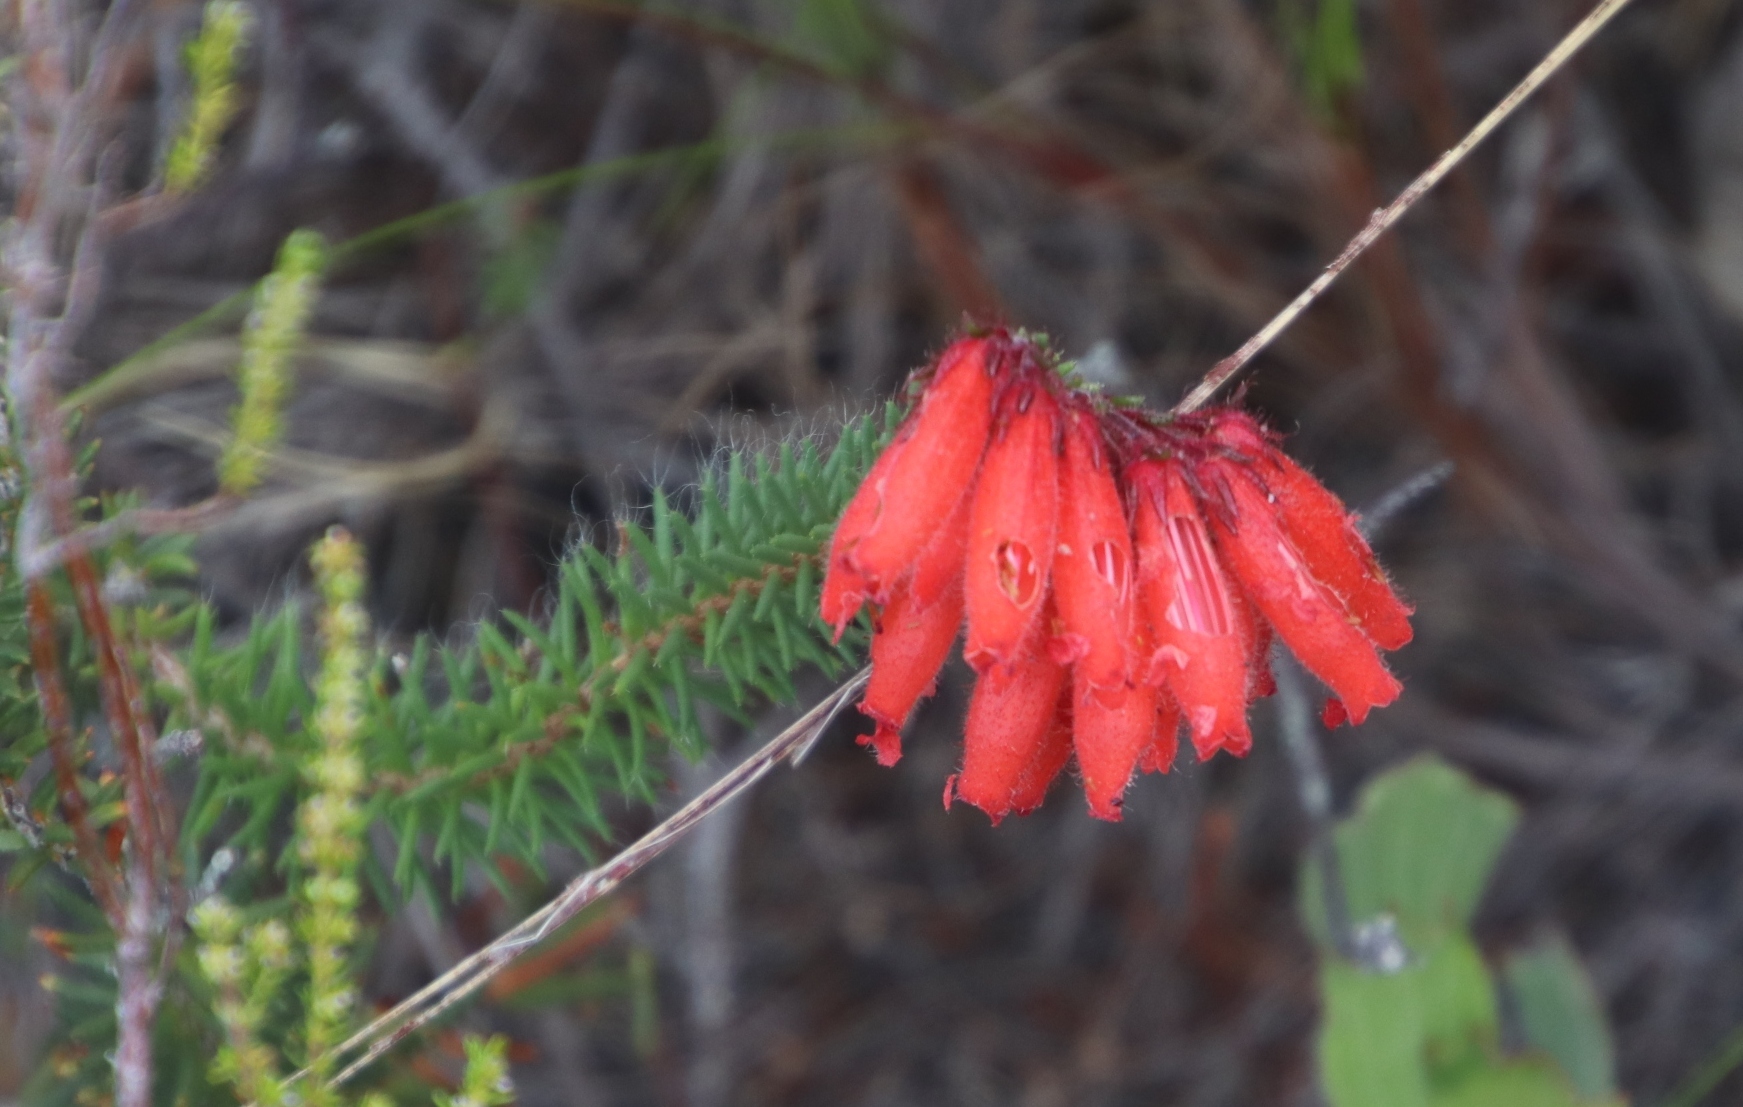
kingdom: Plantae
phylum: Tracheophyta
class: Magnoliopsida
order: Ericales
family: Ericaceae
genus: Erica
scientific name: Erica cerinthoides
